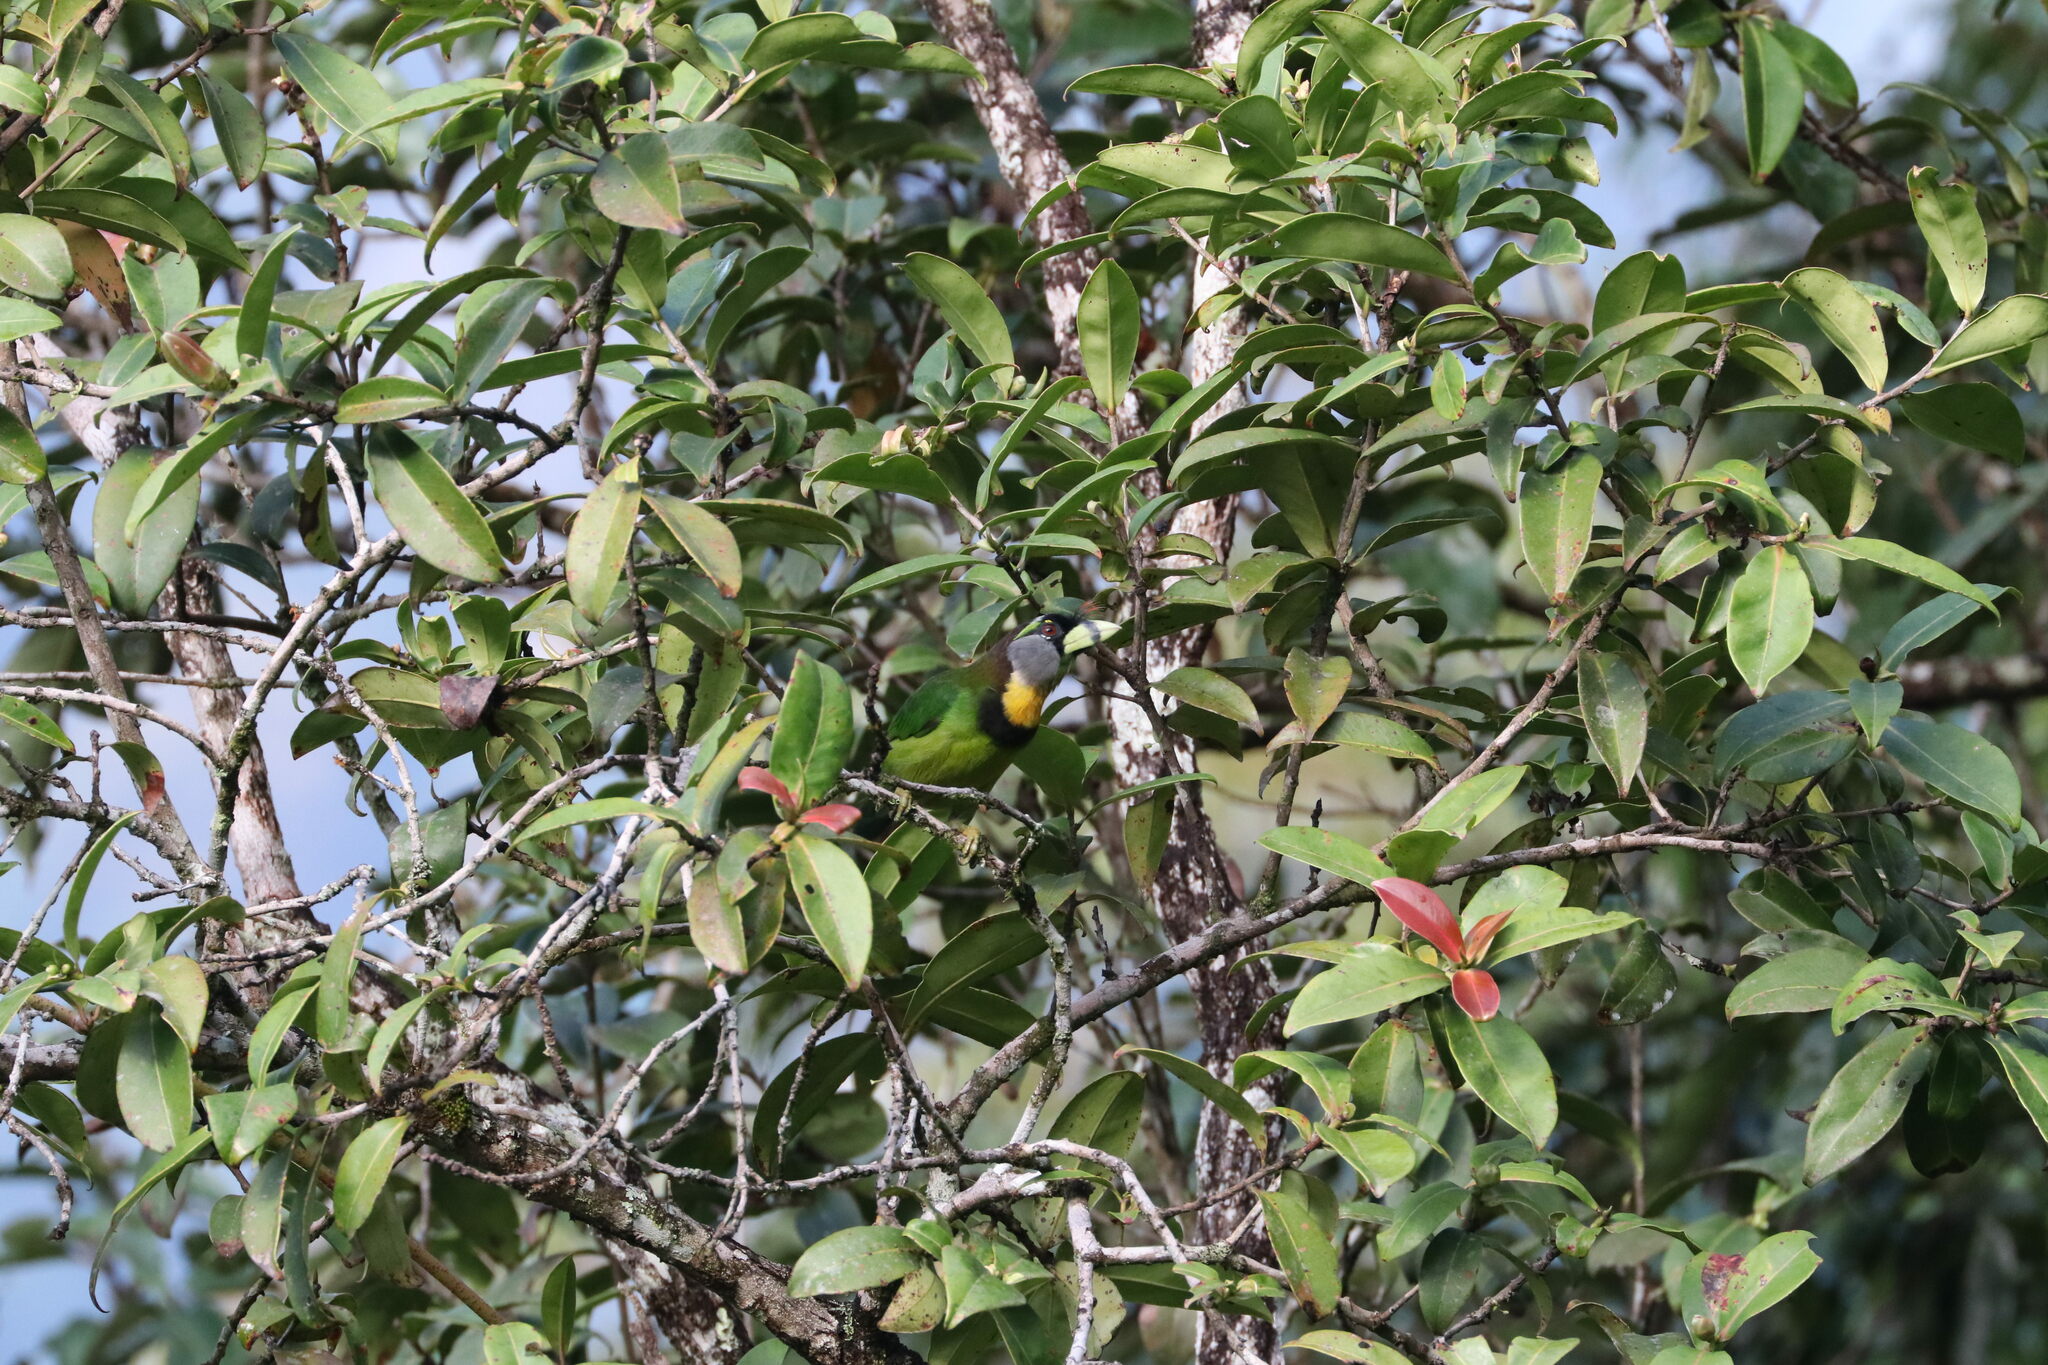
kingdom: Animalia
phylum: Chordata
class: Aves
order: Piciformes
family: Megalaimidae
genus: Psilopogon
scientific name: Psilopogon pyrolophus
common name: Fire-tufted barbet
